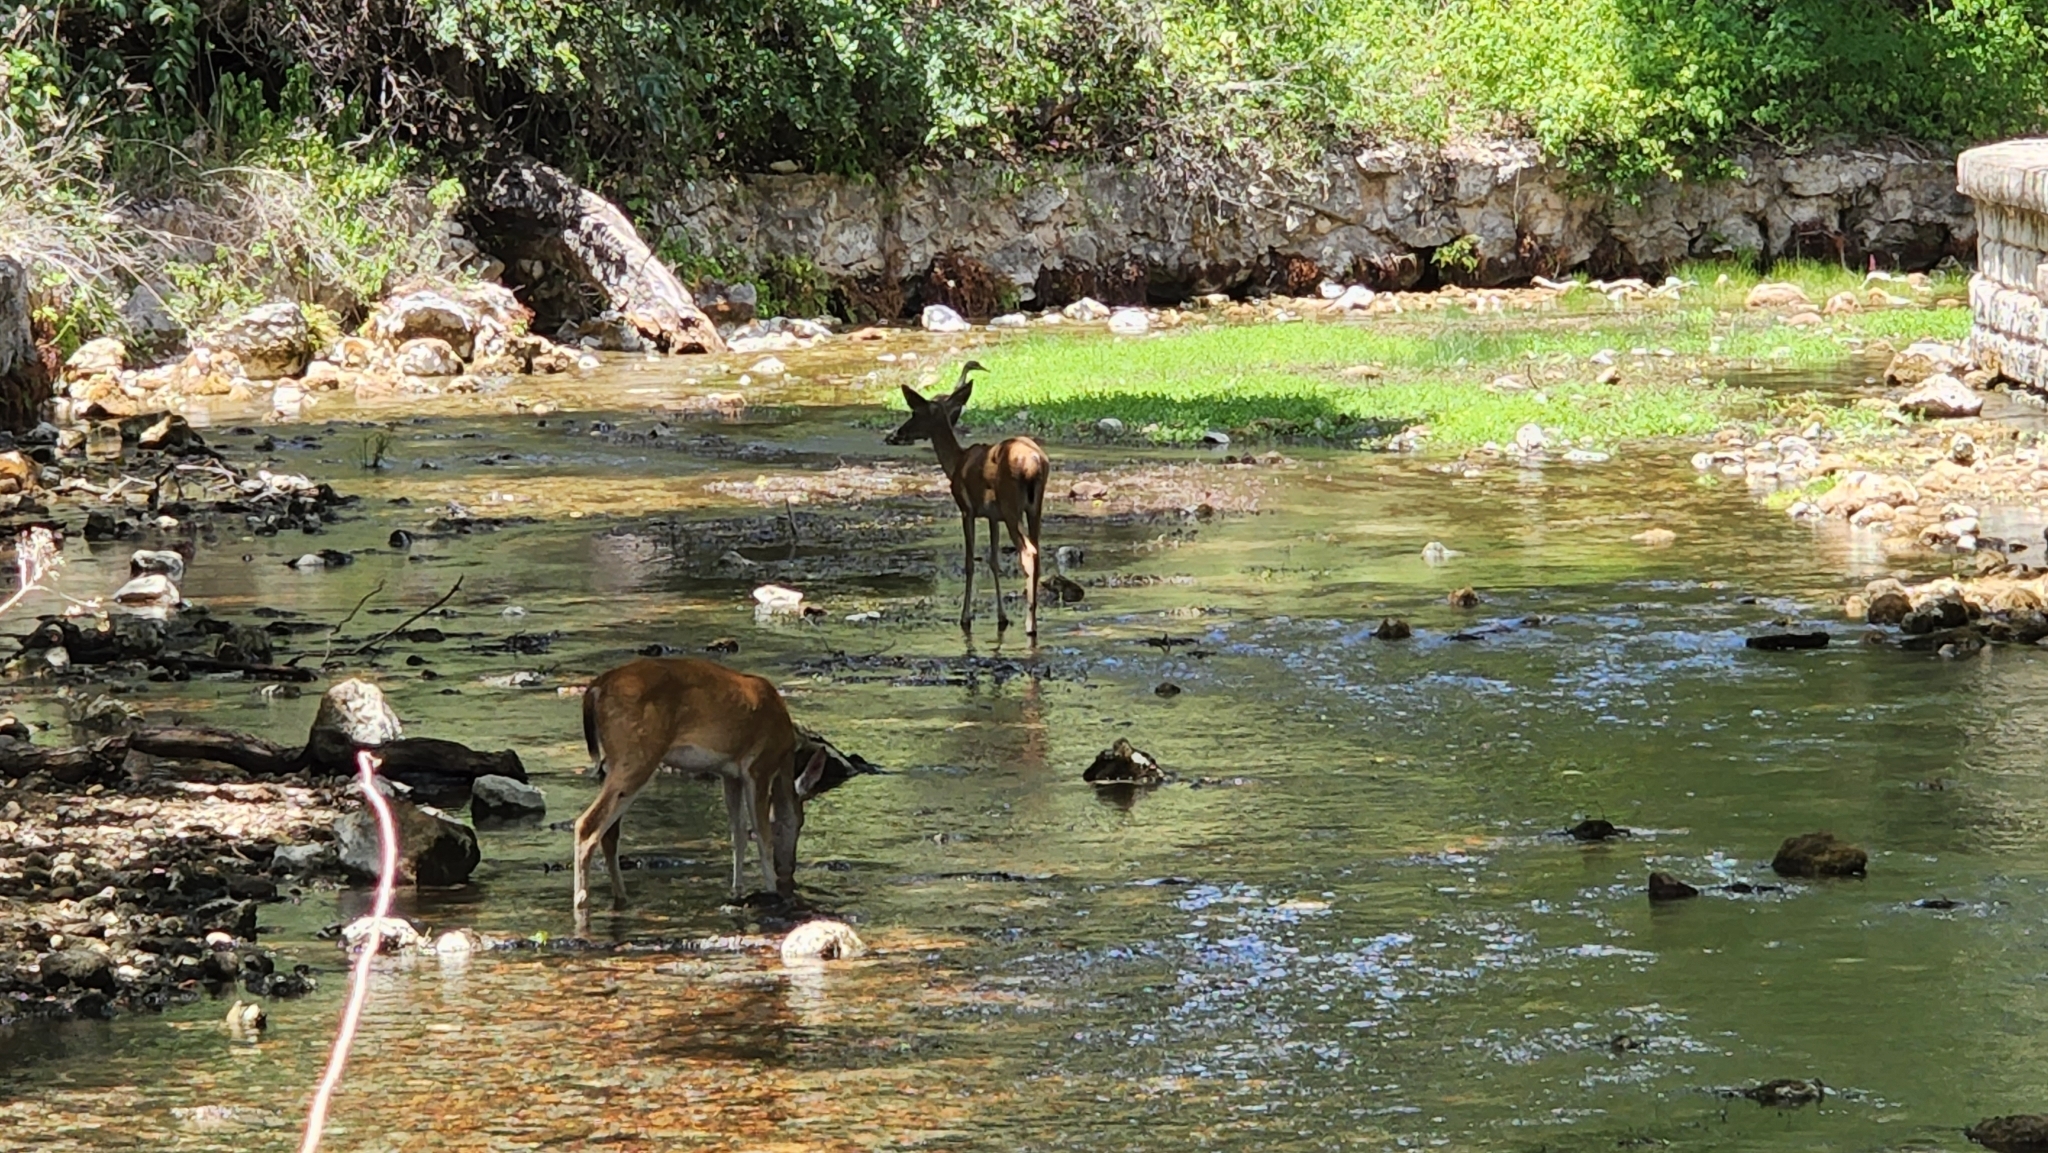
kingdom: Animalia
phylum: Chordata
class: Mammalia
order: Artiodactyla
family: Cervidae
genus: Odocoileus
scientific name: Odocoileus virginianus
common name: White-tailed deer
